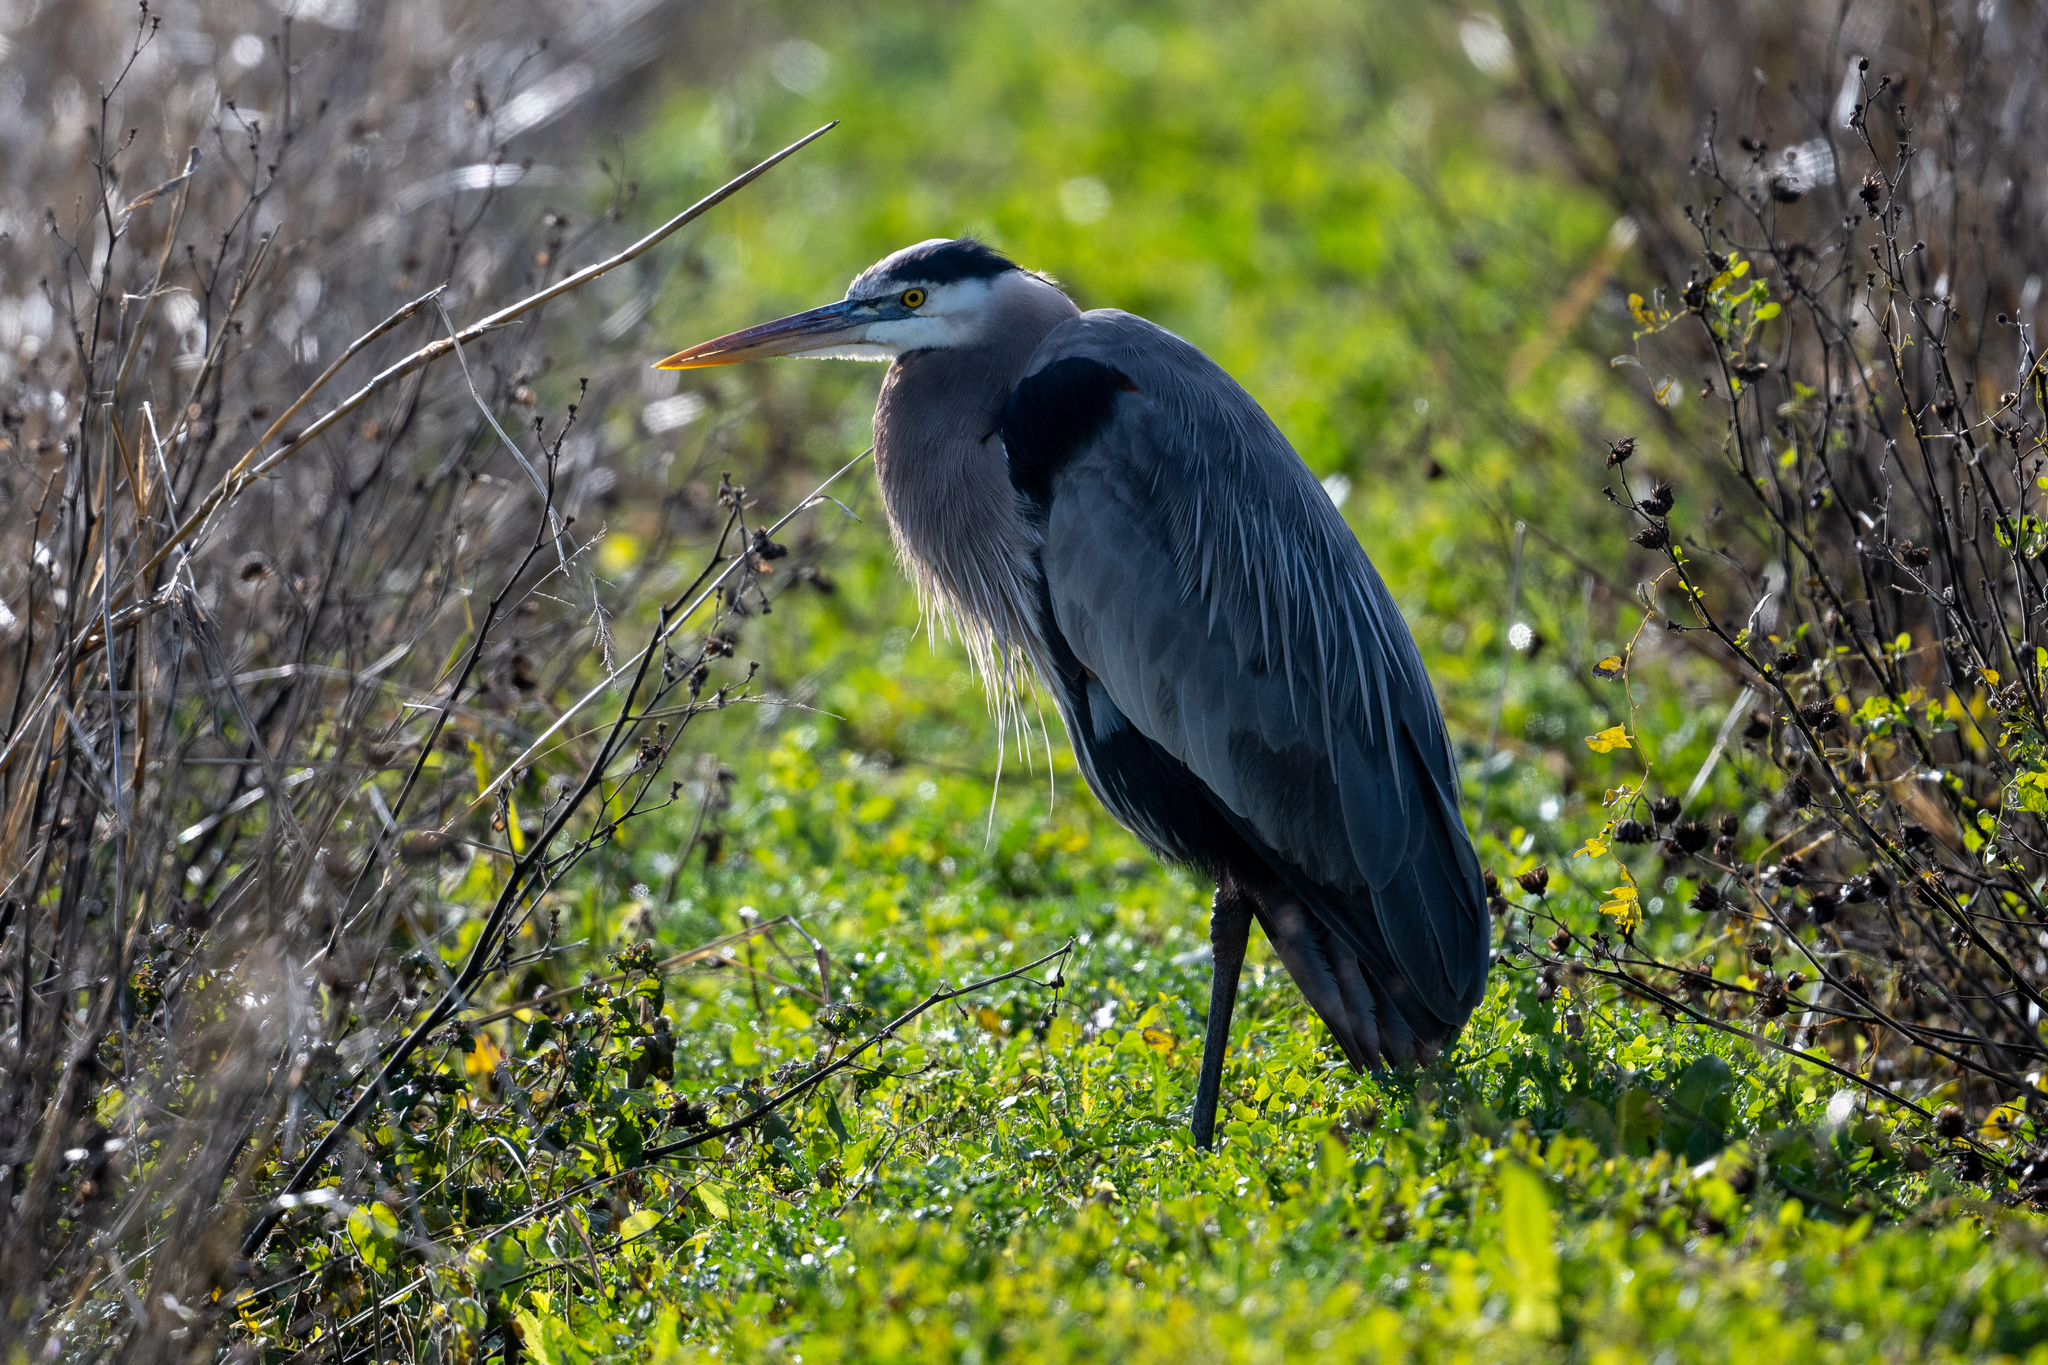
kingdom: Animalia
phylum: Chordata
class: Aves
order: Pelecaniformes
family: Ardeidae
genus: Ardea
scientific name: Ardea herodias
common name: Great blue heron
